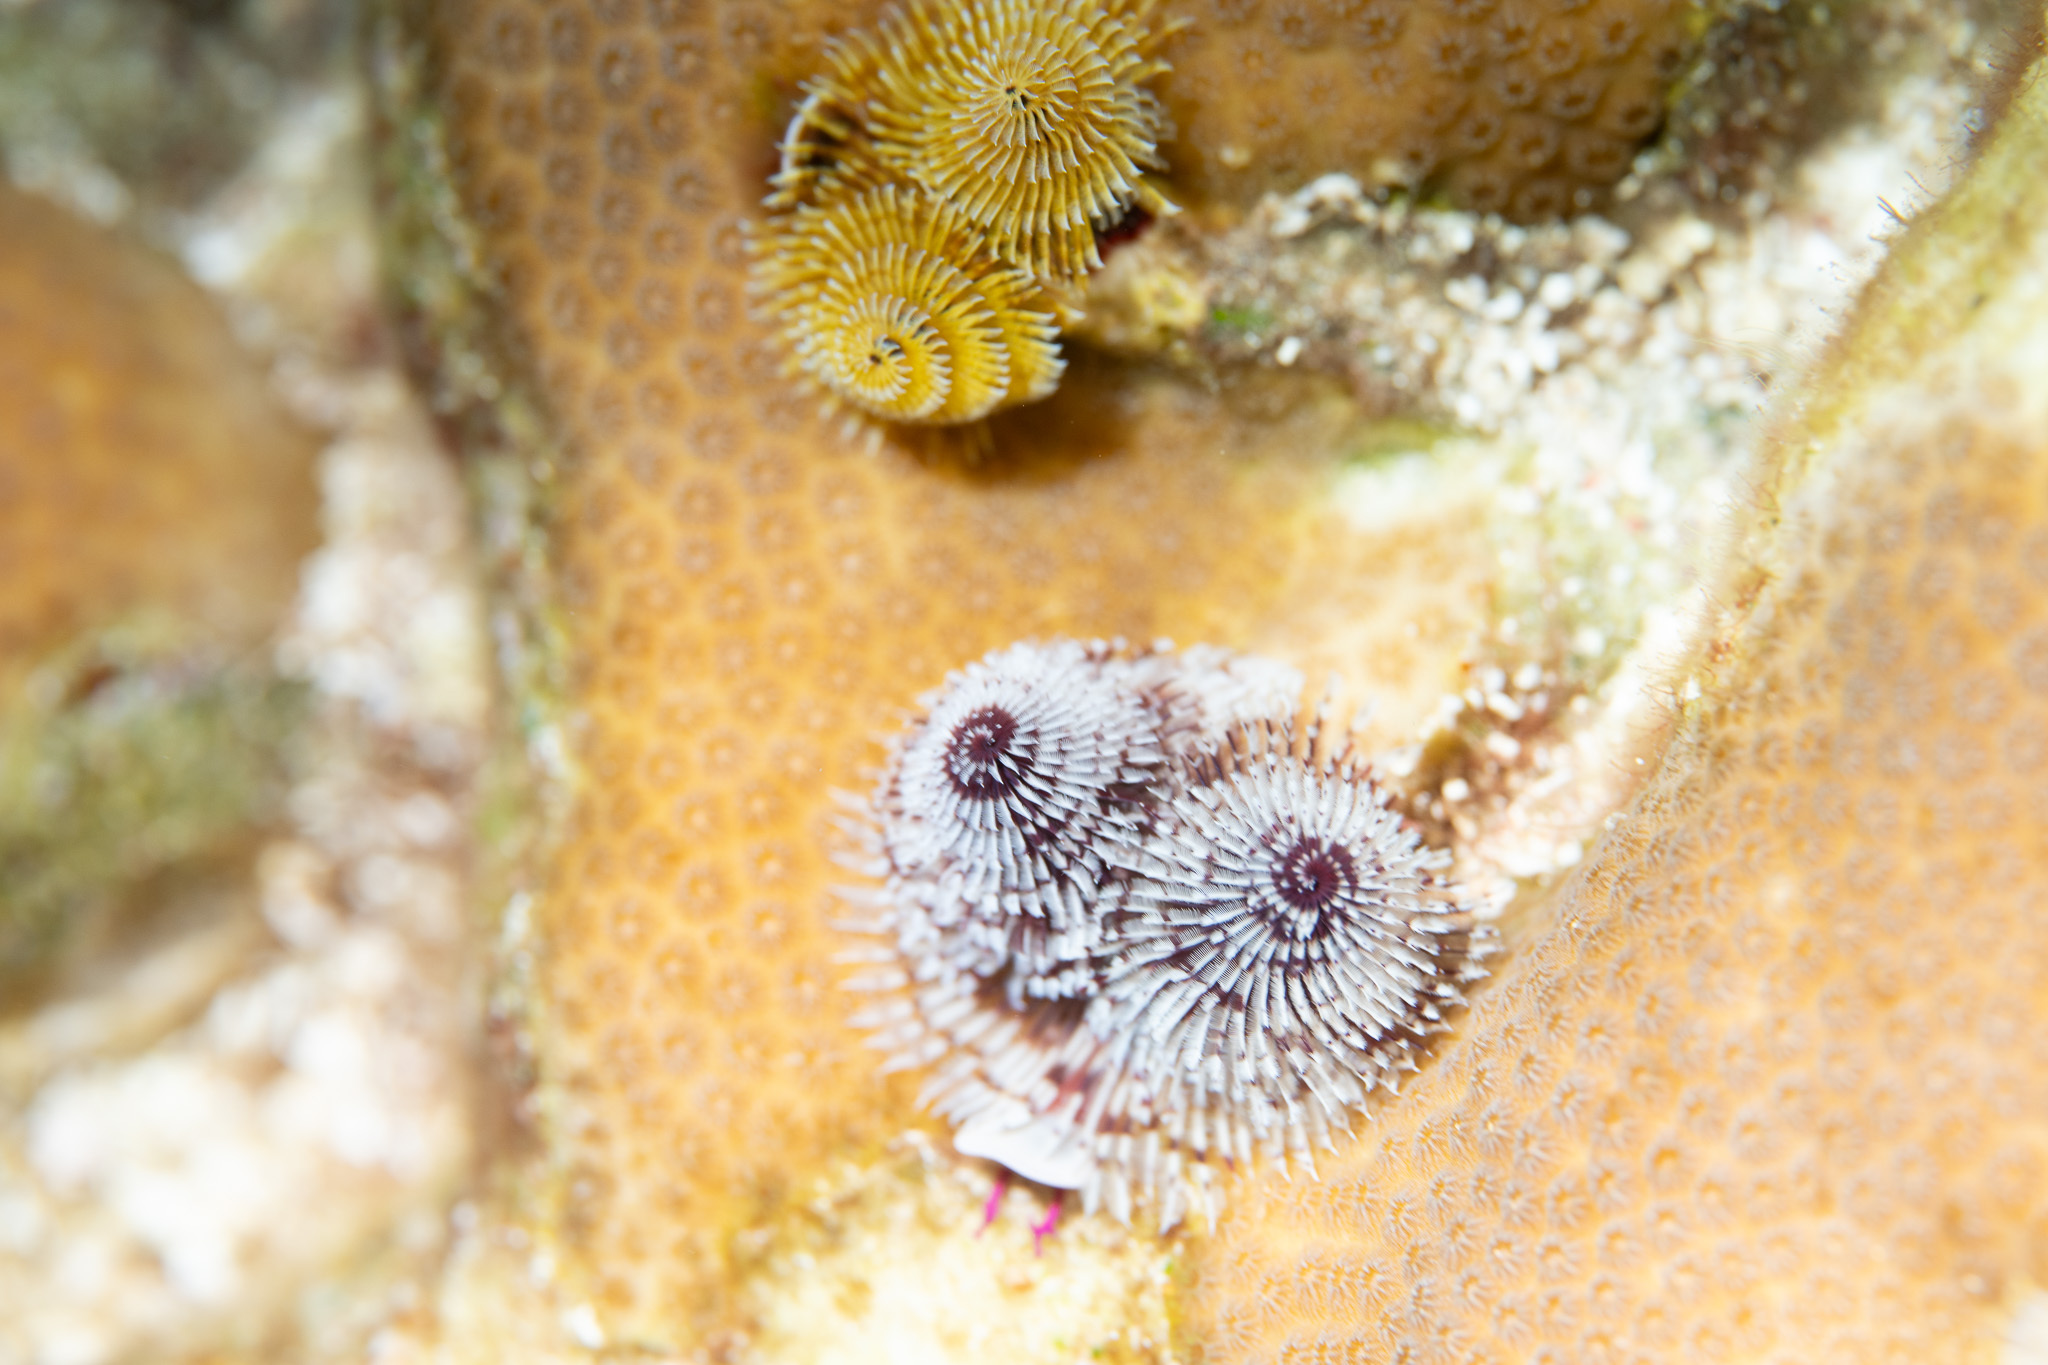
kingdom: Animalia
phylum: Annelida
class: Polychaeta
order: Sabellida
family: Serpulidae
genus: Spirobranchus
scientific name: Spirobranchus giganteus
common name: Christmas tree worm
